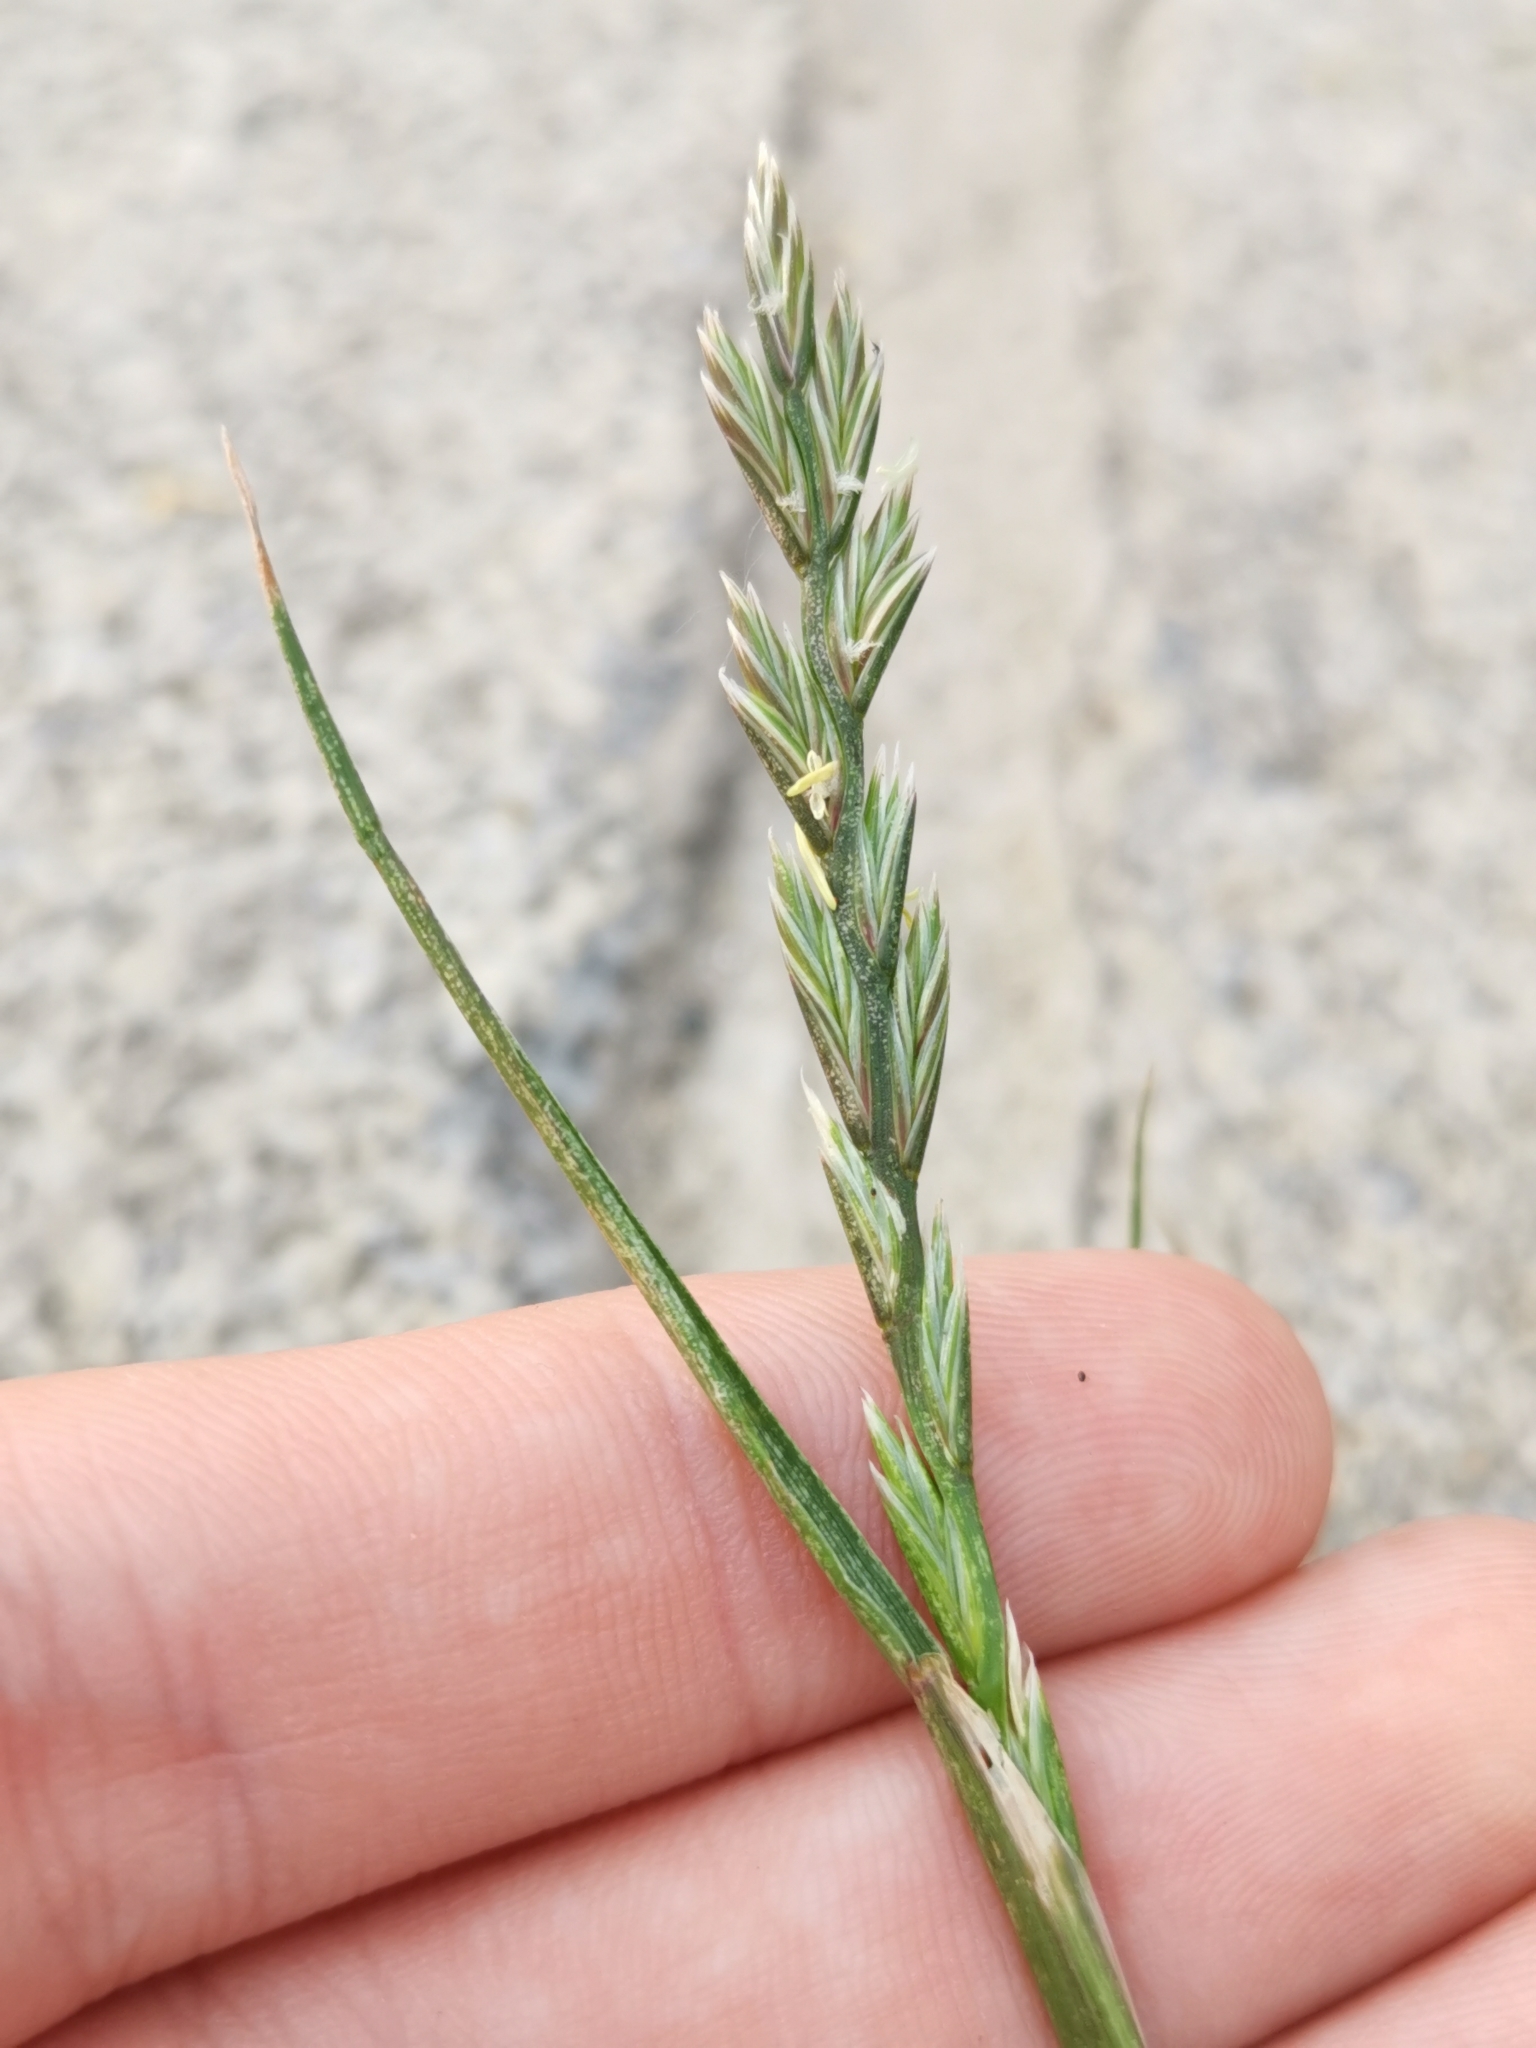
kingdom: Plantae
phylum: Tracheophyta
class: Liliopsida
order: Poales
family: Poaceae
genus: Lolium
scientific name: Lolium perenne
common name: Perennial ryegrass
